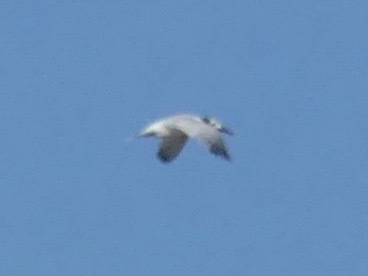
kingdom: Animalia
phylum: Chordata
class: Aves
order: Charadriiformes
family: Laridae
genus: Thalasseus
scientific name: Thalasseus sandvicensis
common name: Sandwich tern
